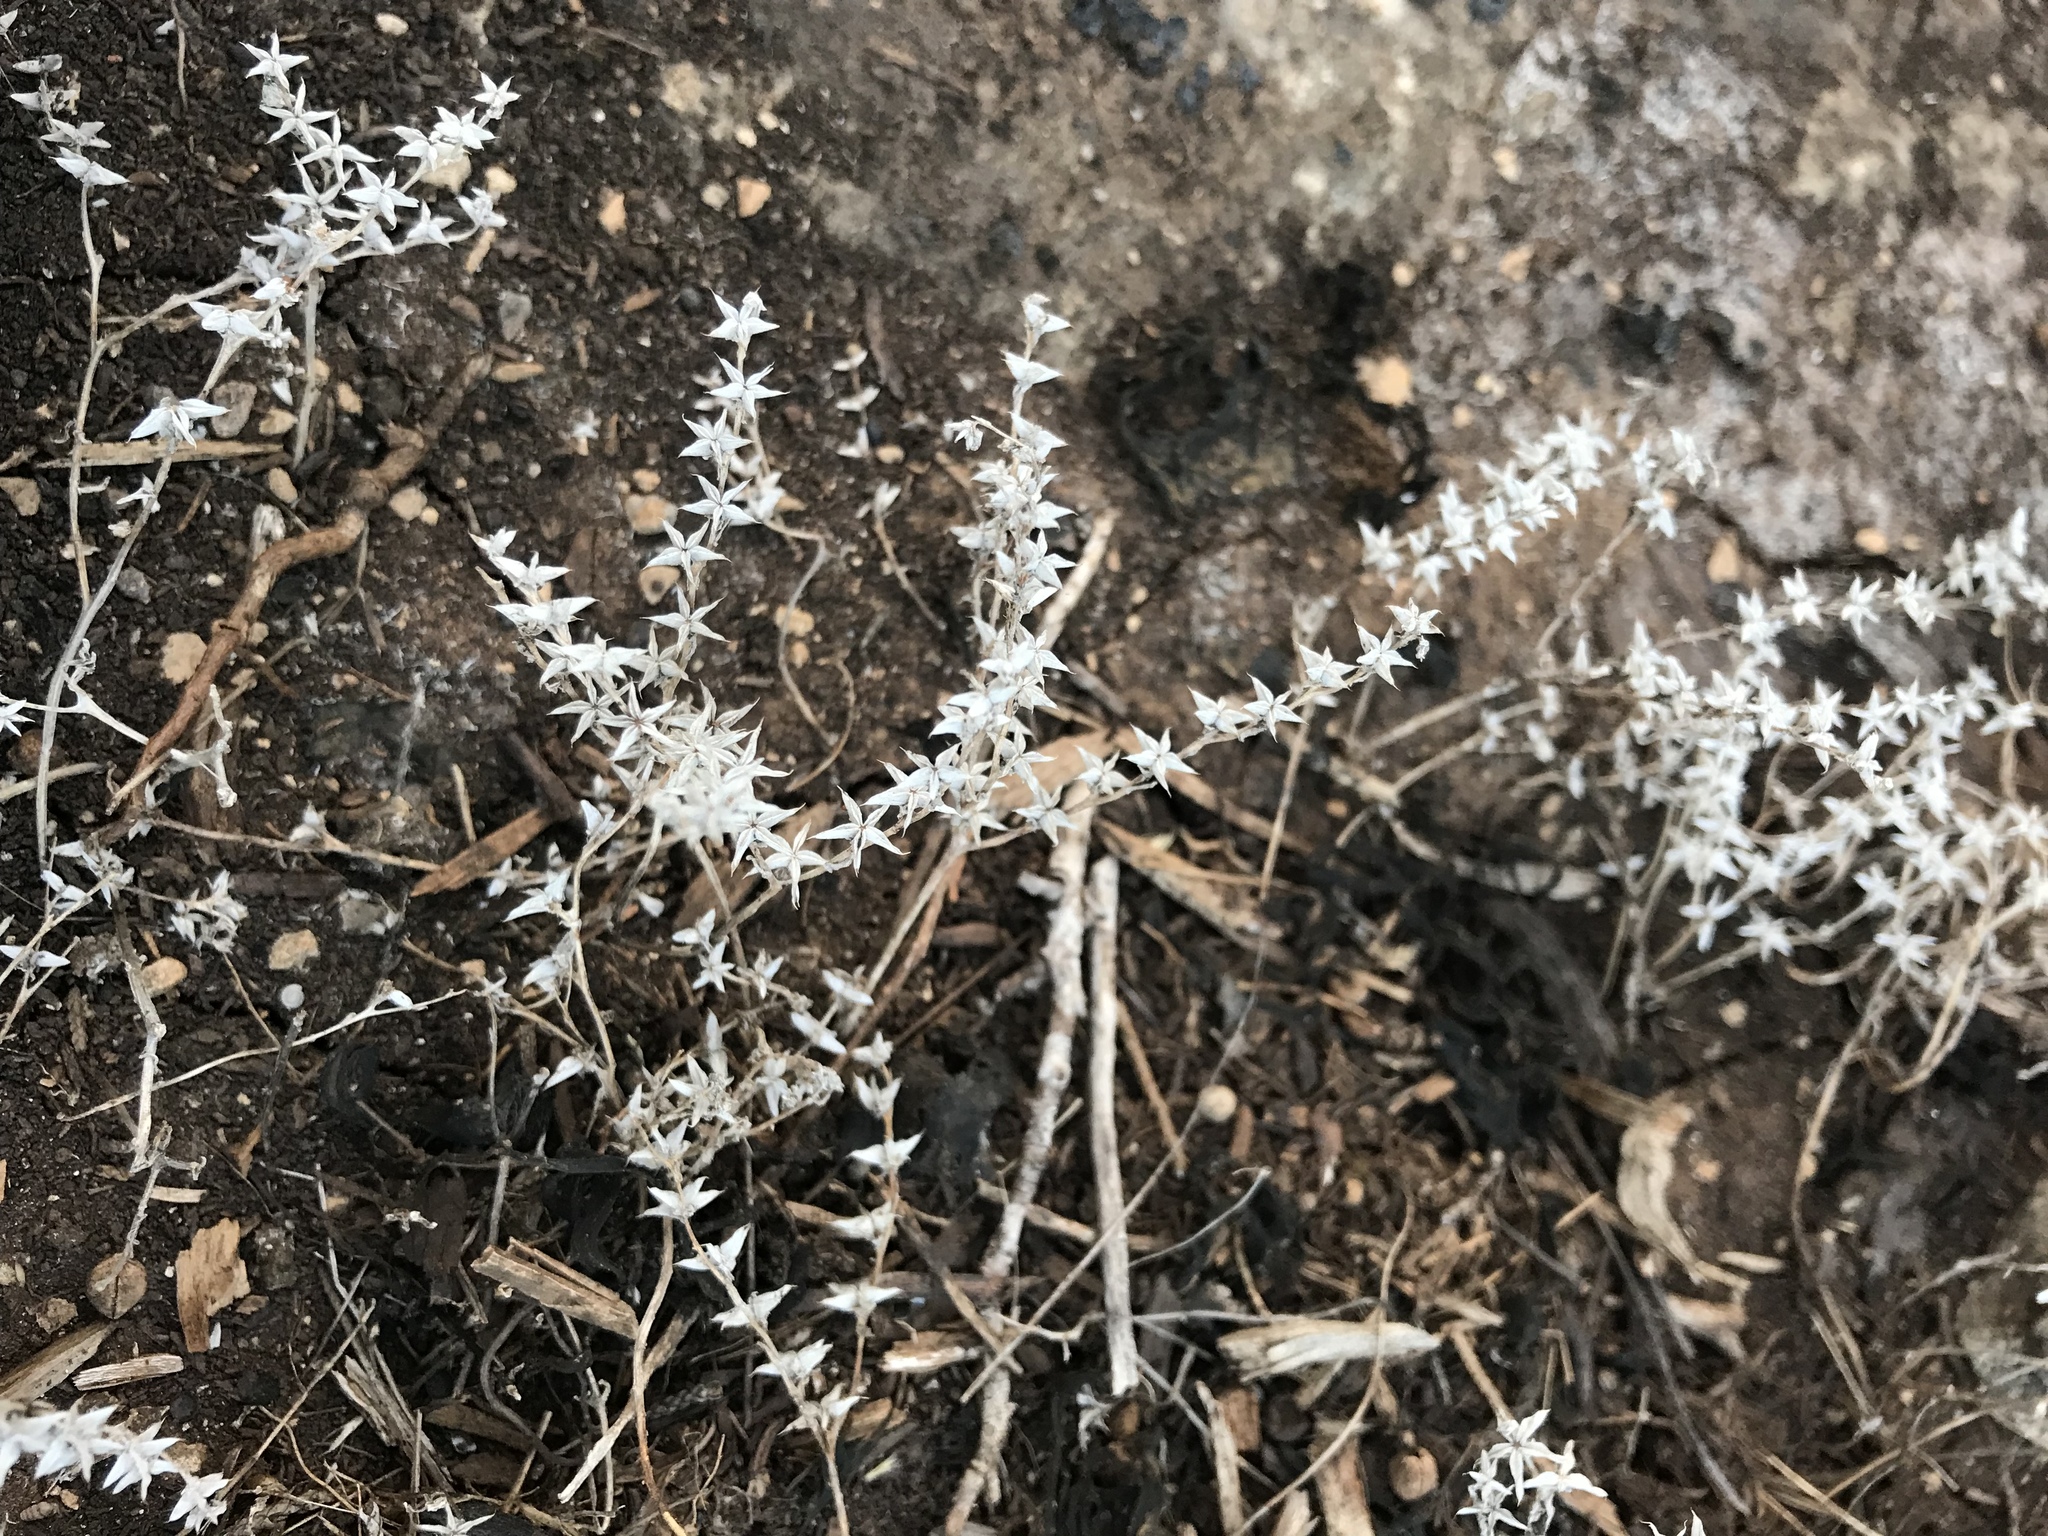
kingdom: Plantae
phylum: Tracheophyta
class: Magnoliopsida
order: Saxifragales
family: Crassulaceae
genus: Sedum
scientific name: Sedum nuttallii
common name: Yellow stonecrop
